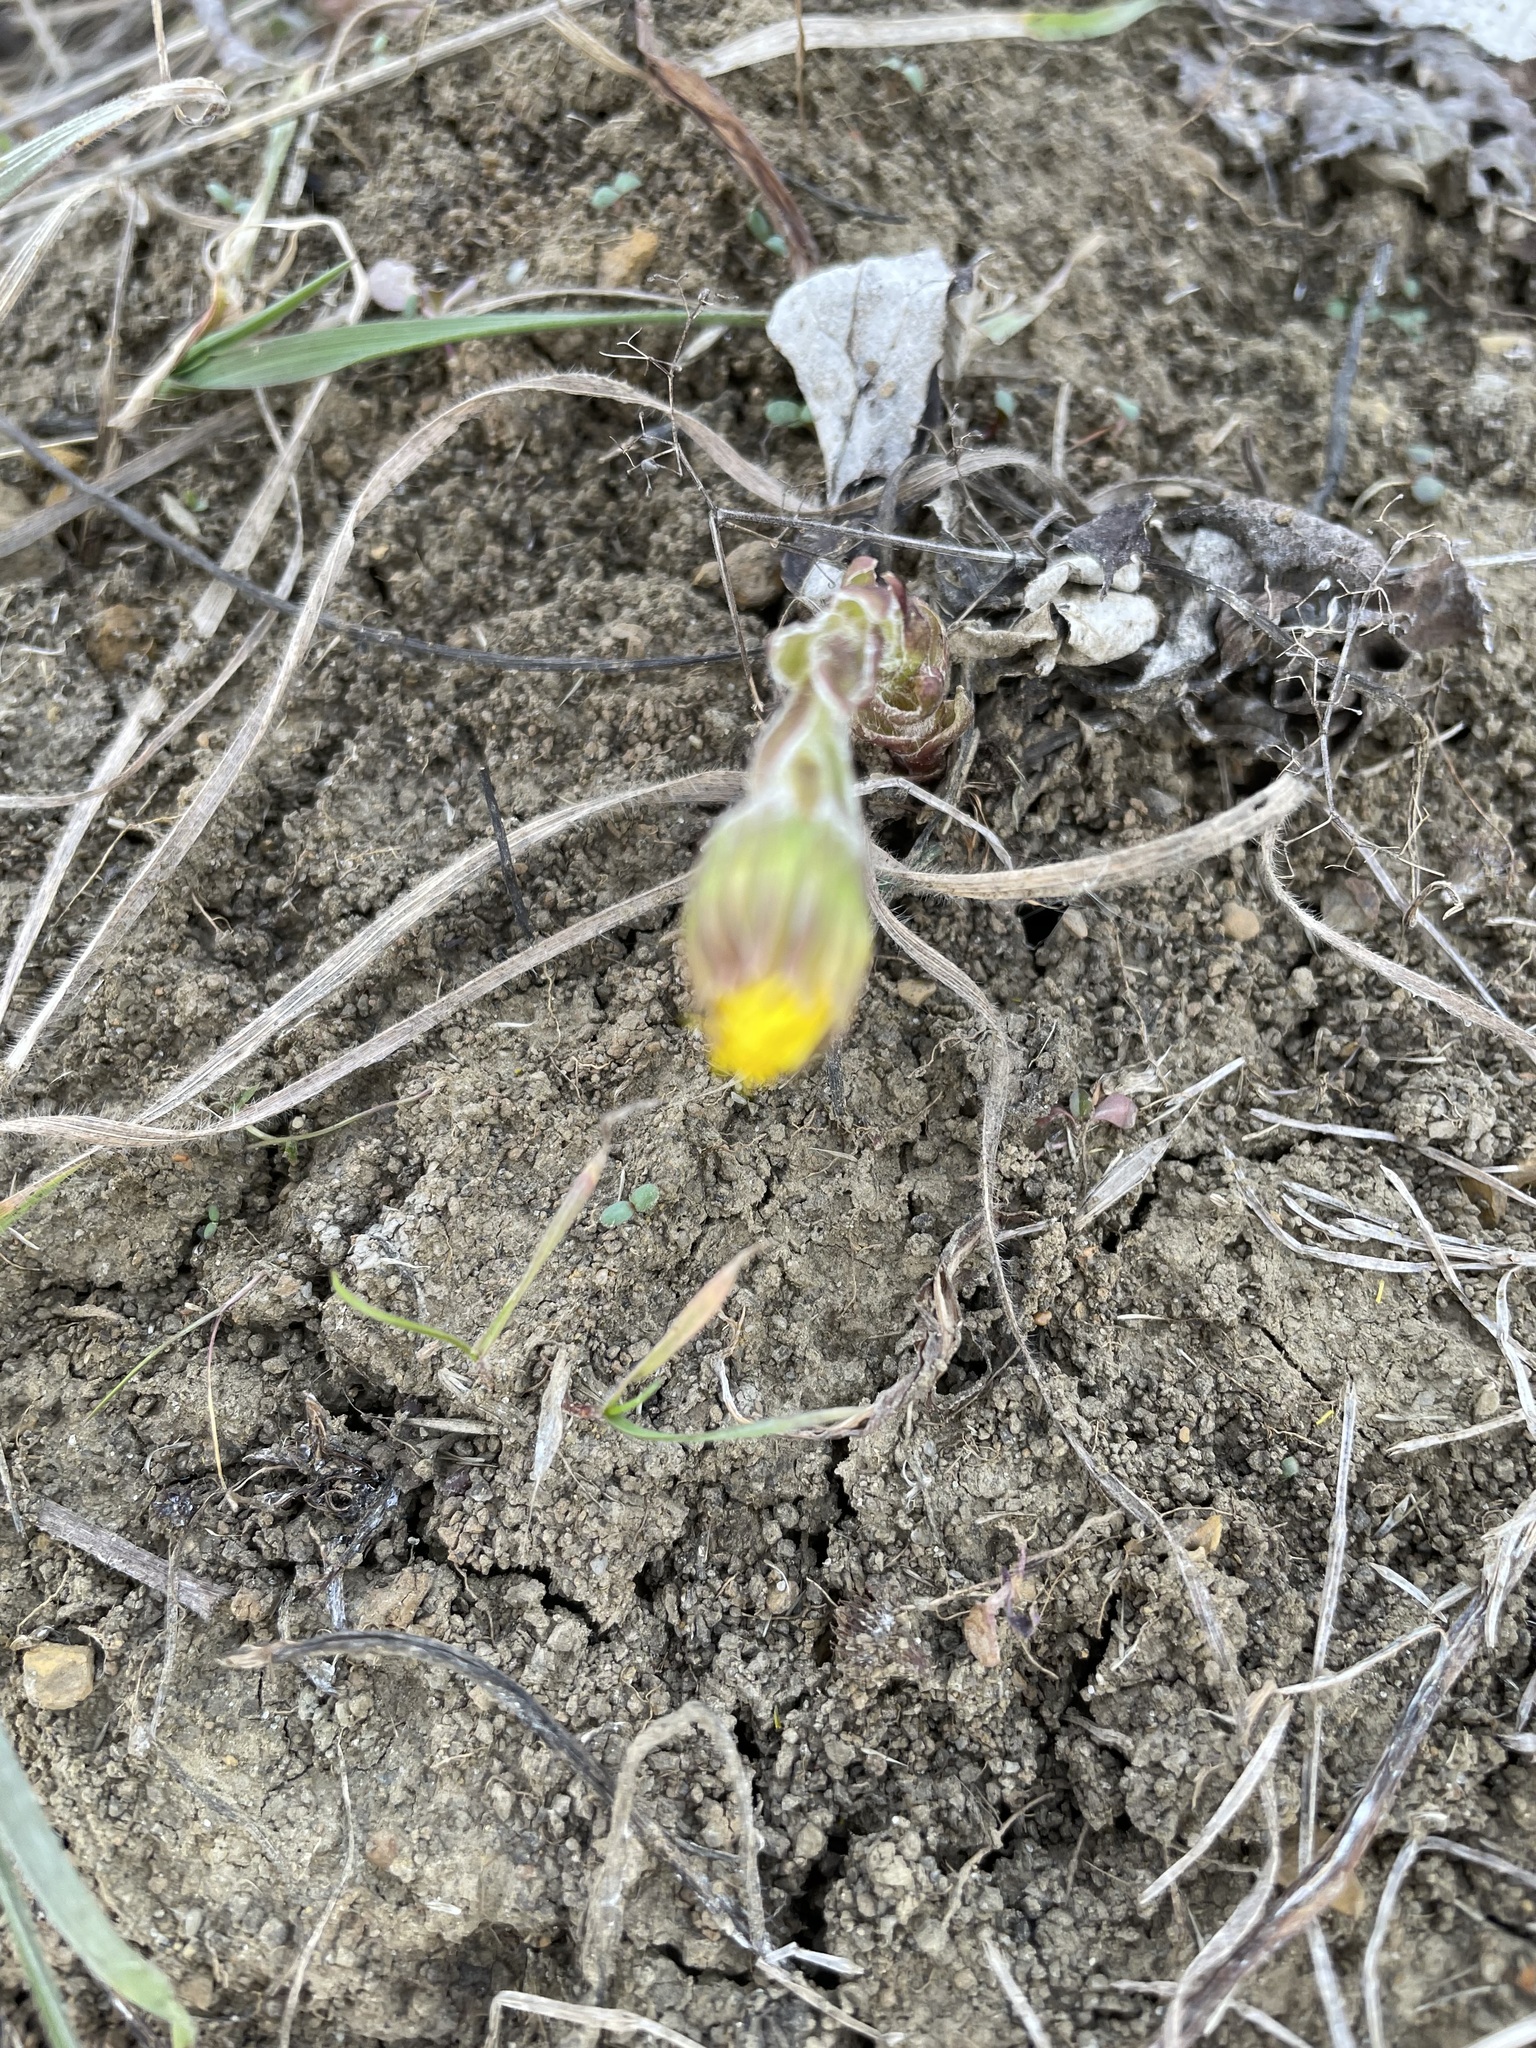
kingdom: Plantae
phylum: Tracheophyta
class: Magnoliopsida
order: Asterales
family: Asteraceae
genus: Tussilago
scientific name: Tussilago farfara
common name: Coltsfoot
